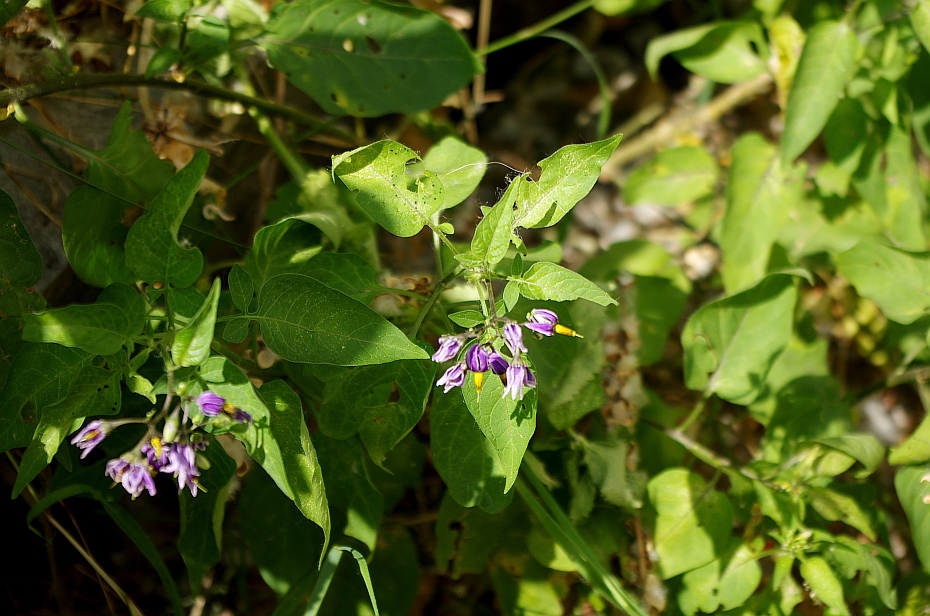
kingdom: Plantae
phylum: Tracheophyta
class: Magnoliopsida
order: Solanales
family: Solanaceae
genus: Solanum
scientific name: Solanum dulcamara
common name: Climbing nightshade
